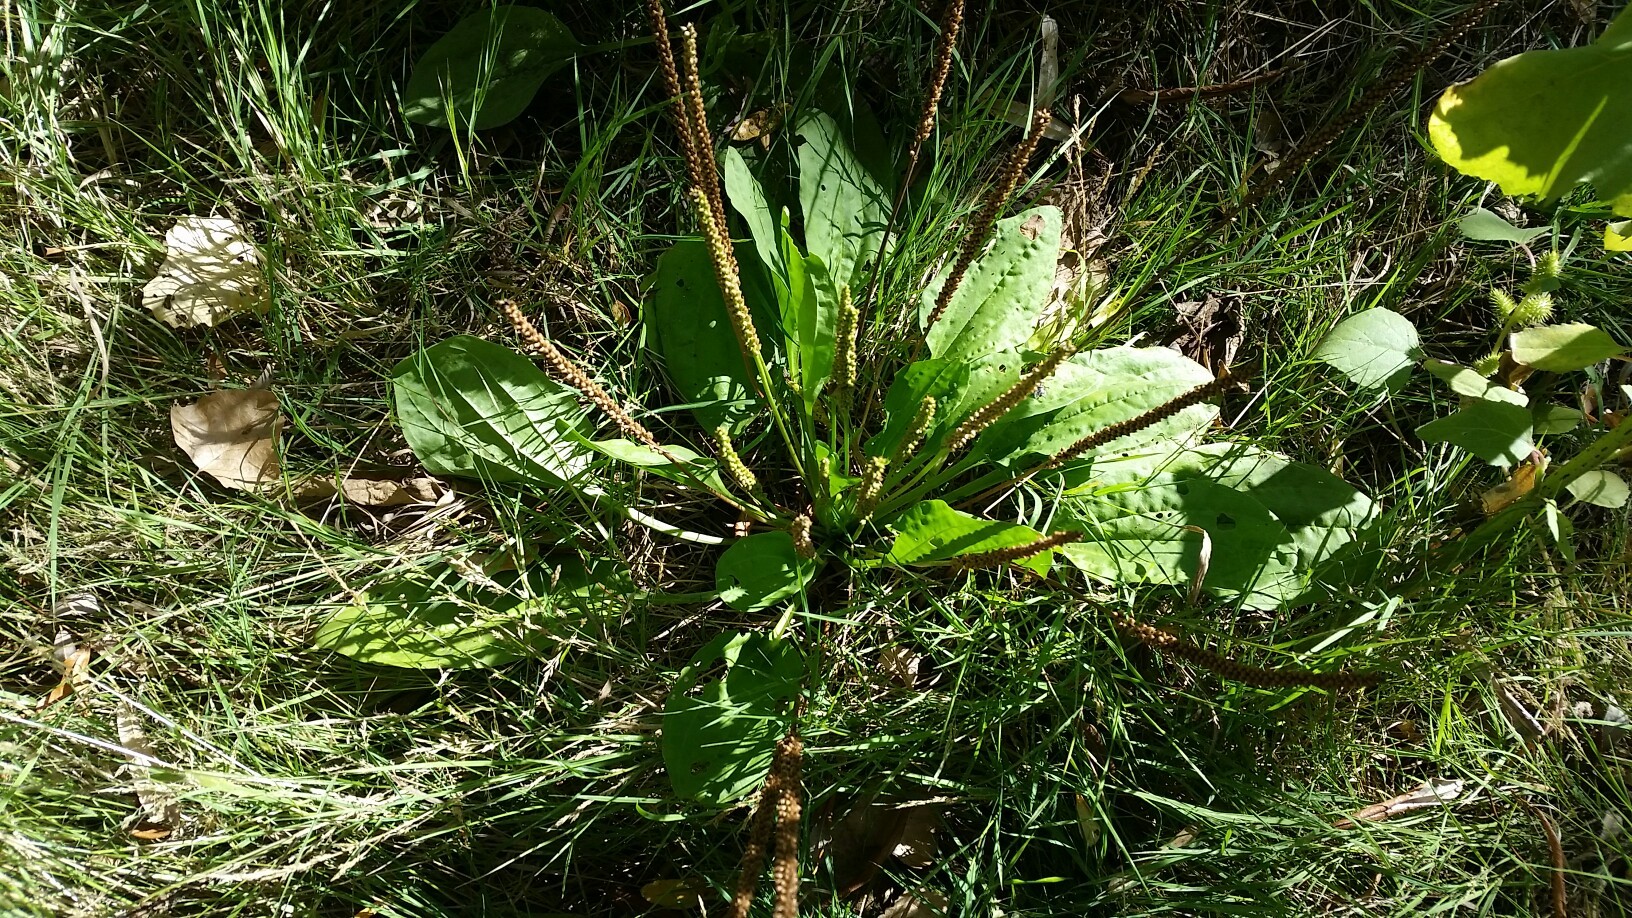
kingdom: Plantae
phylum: Tracheophyta
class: Magnoliopsida
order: Lamiales
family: Plantaginaceae
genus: Plantago
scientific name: Plantago major
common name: Common plantain
